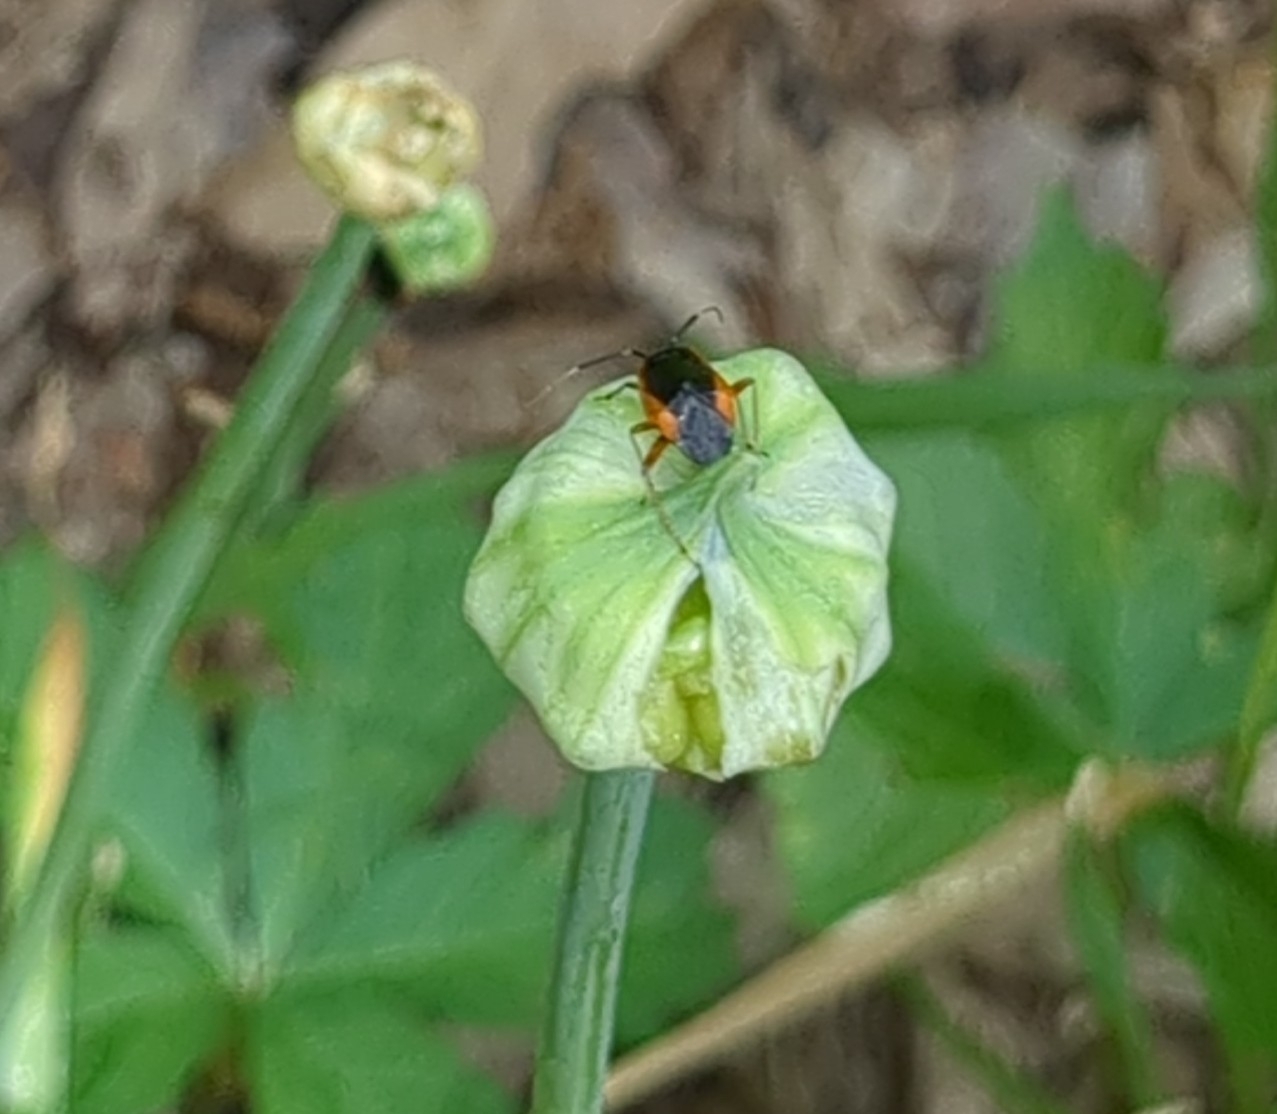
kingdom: Animalia
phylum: Arthropoda
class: Insecta
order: Hemiptera
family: Miridae
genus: Metriorrhynchomiris
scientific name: Metriorrhynchomiris dislocatus
